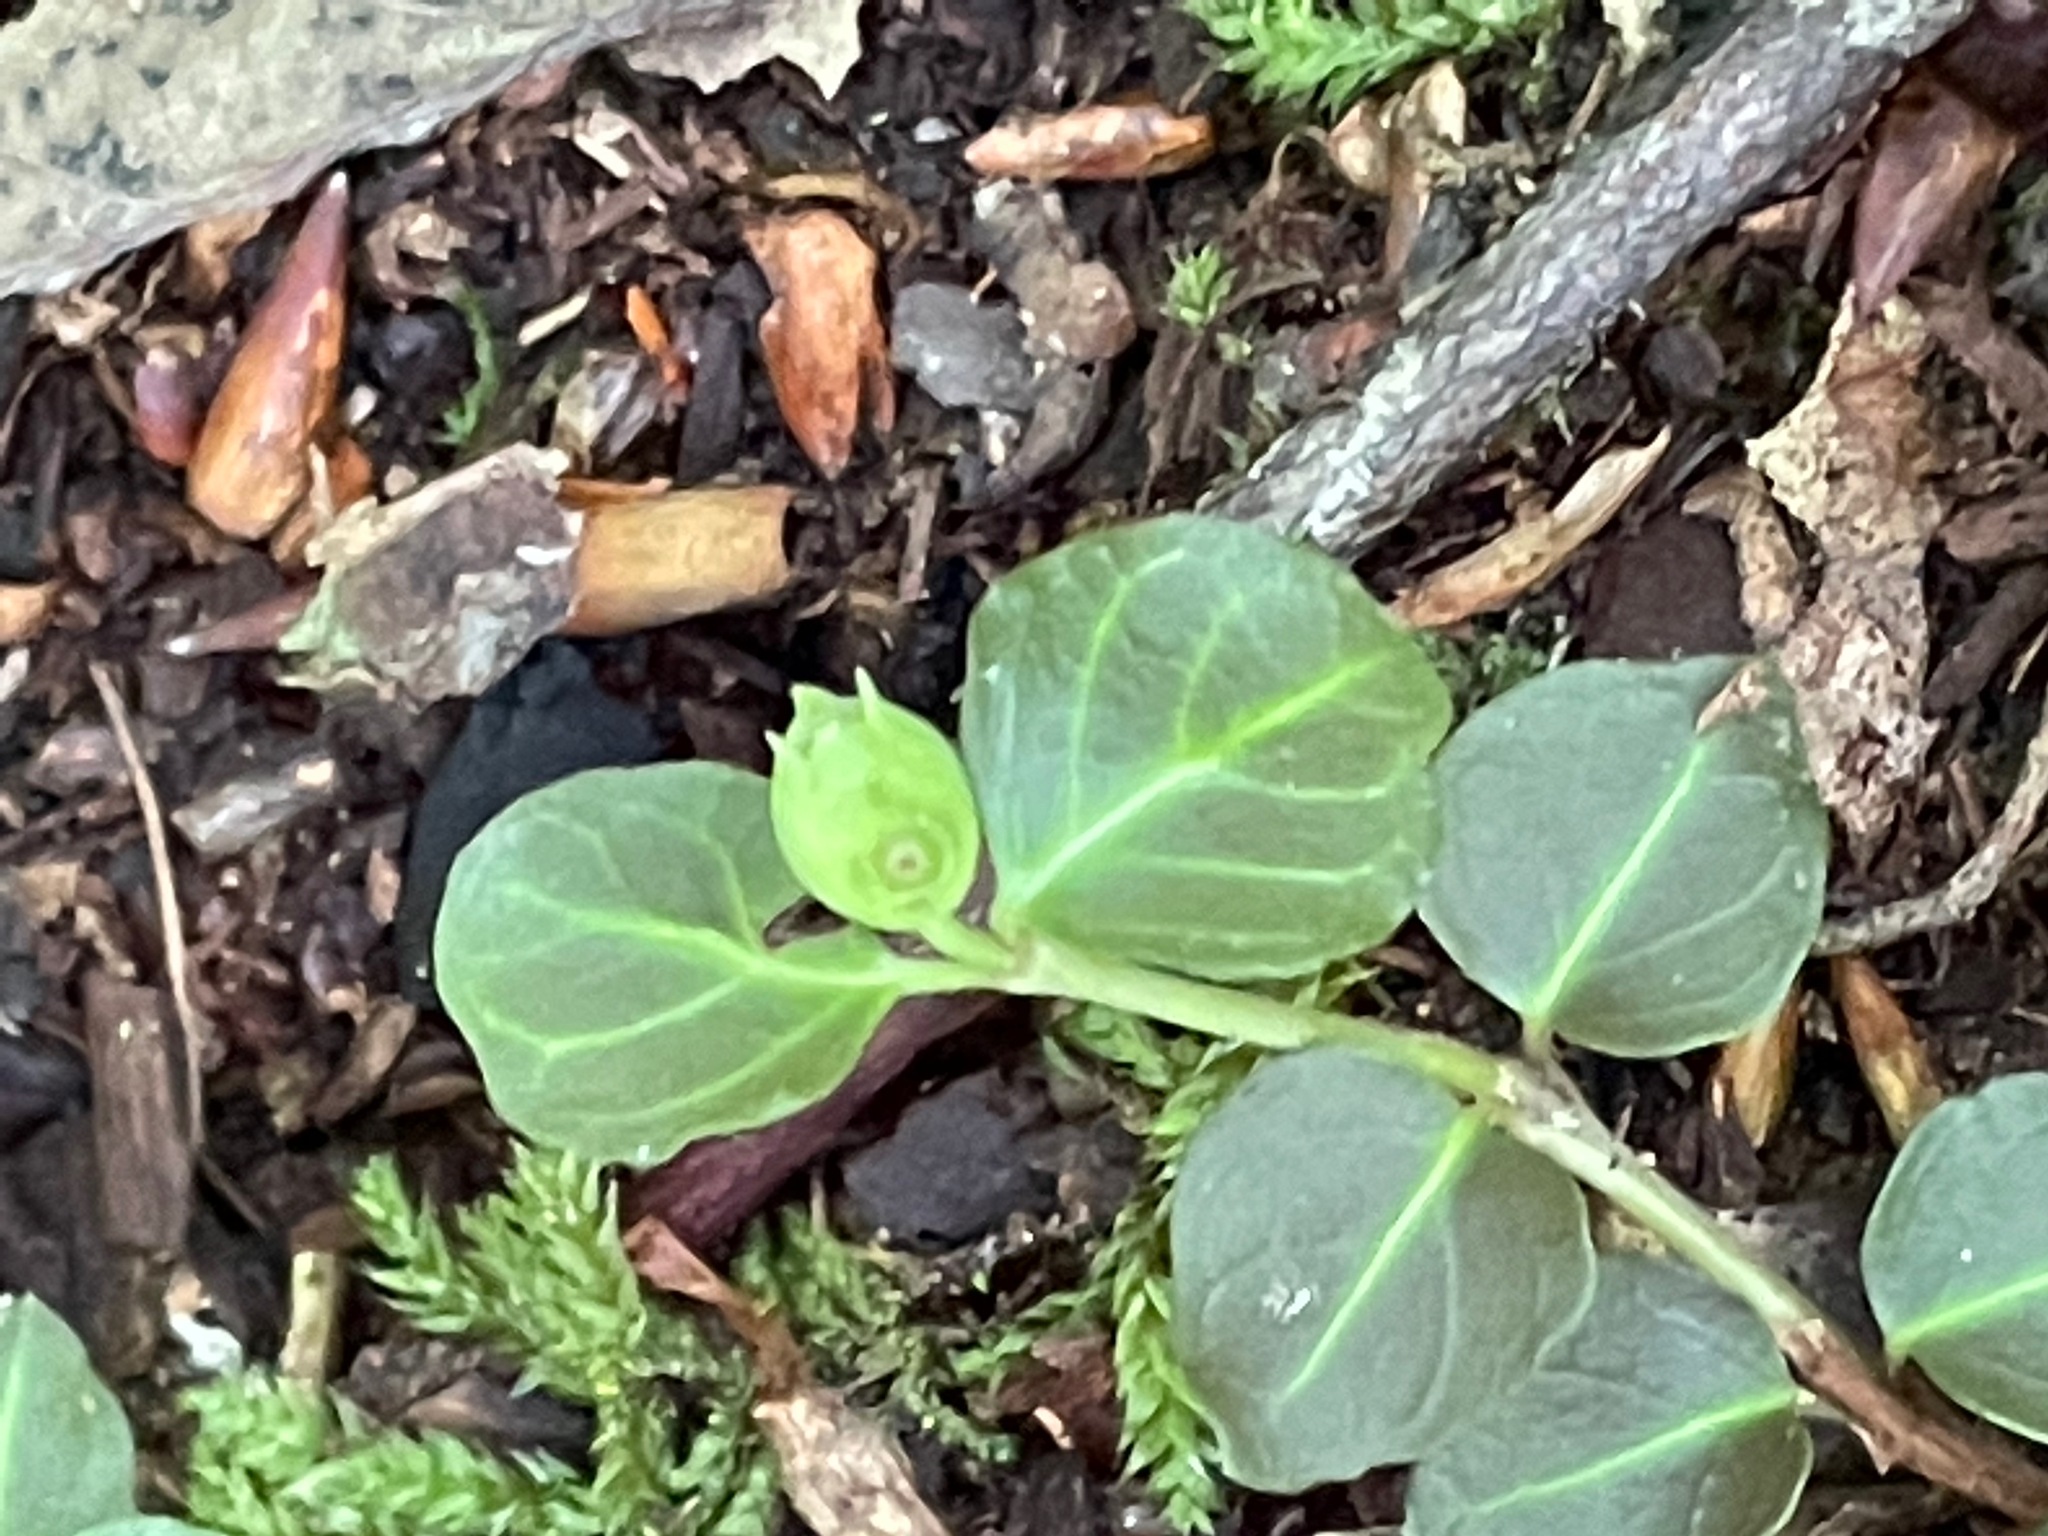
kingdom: Plantae
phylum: Tracheophyta
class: Magnoliopsida
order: Gentianales
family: Rubiaceae
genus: Mitchella
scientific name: Mitchella repens
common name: Partridge-berry
